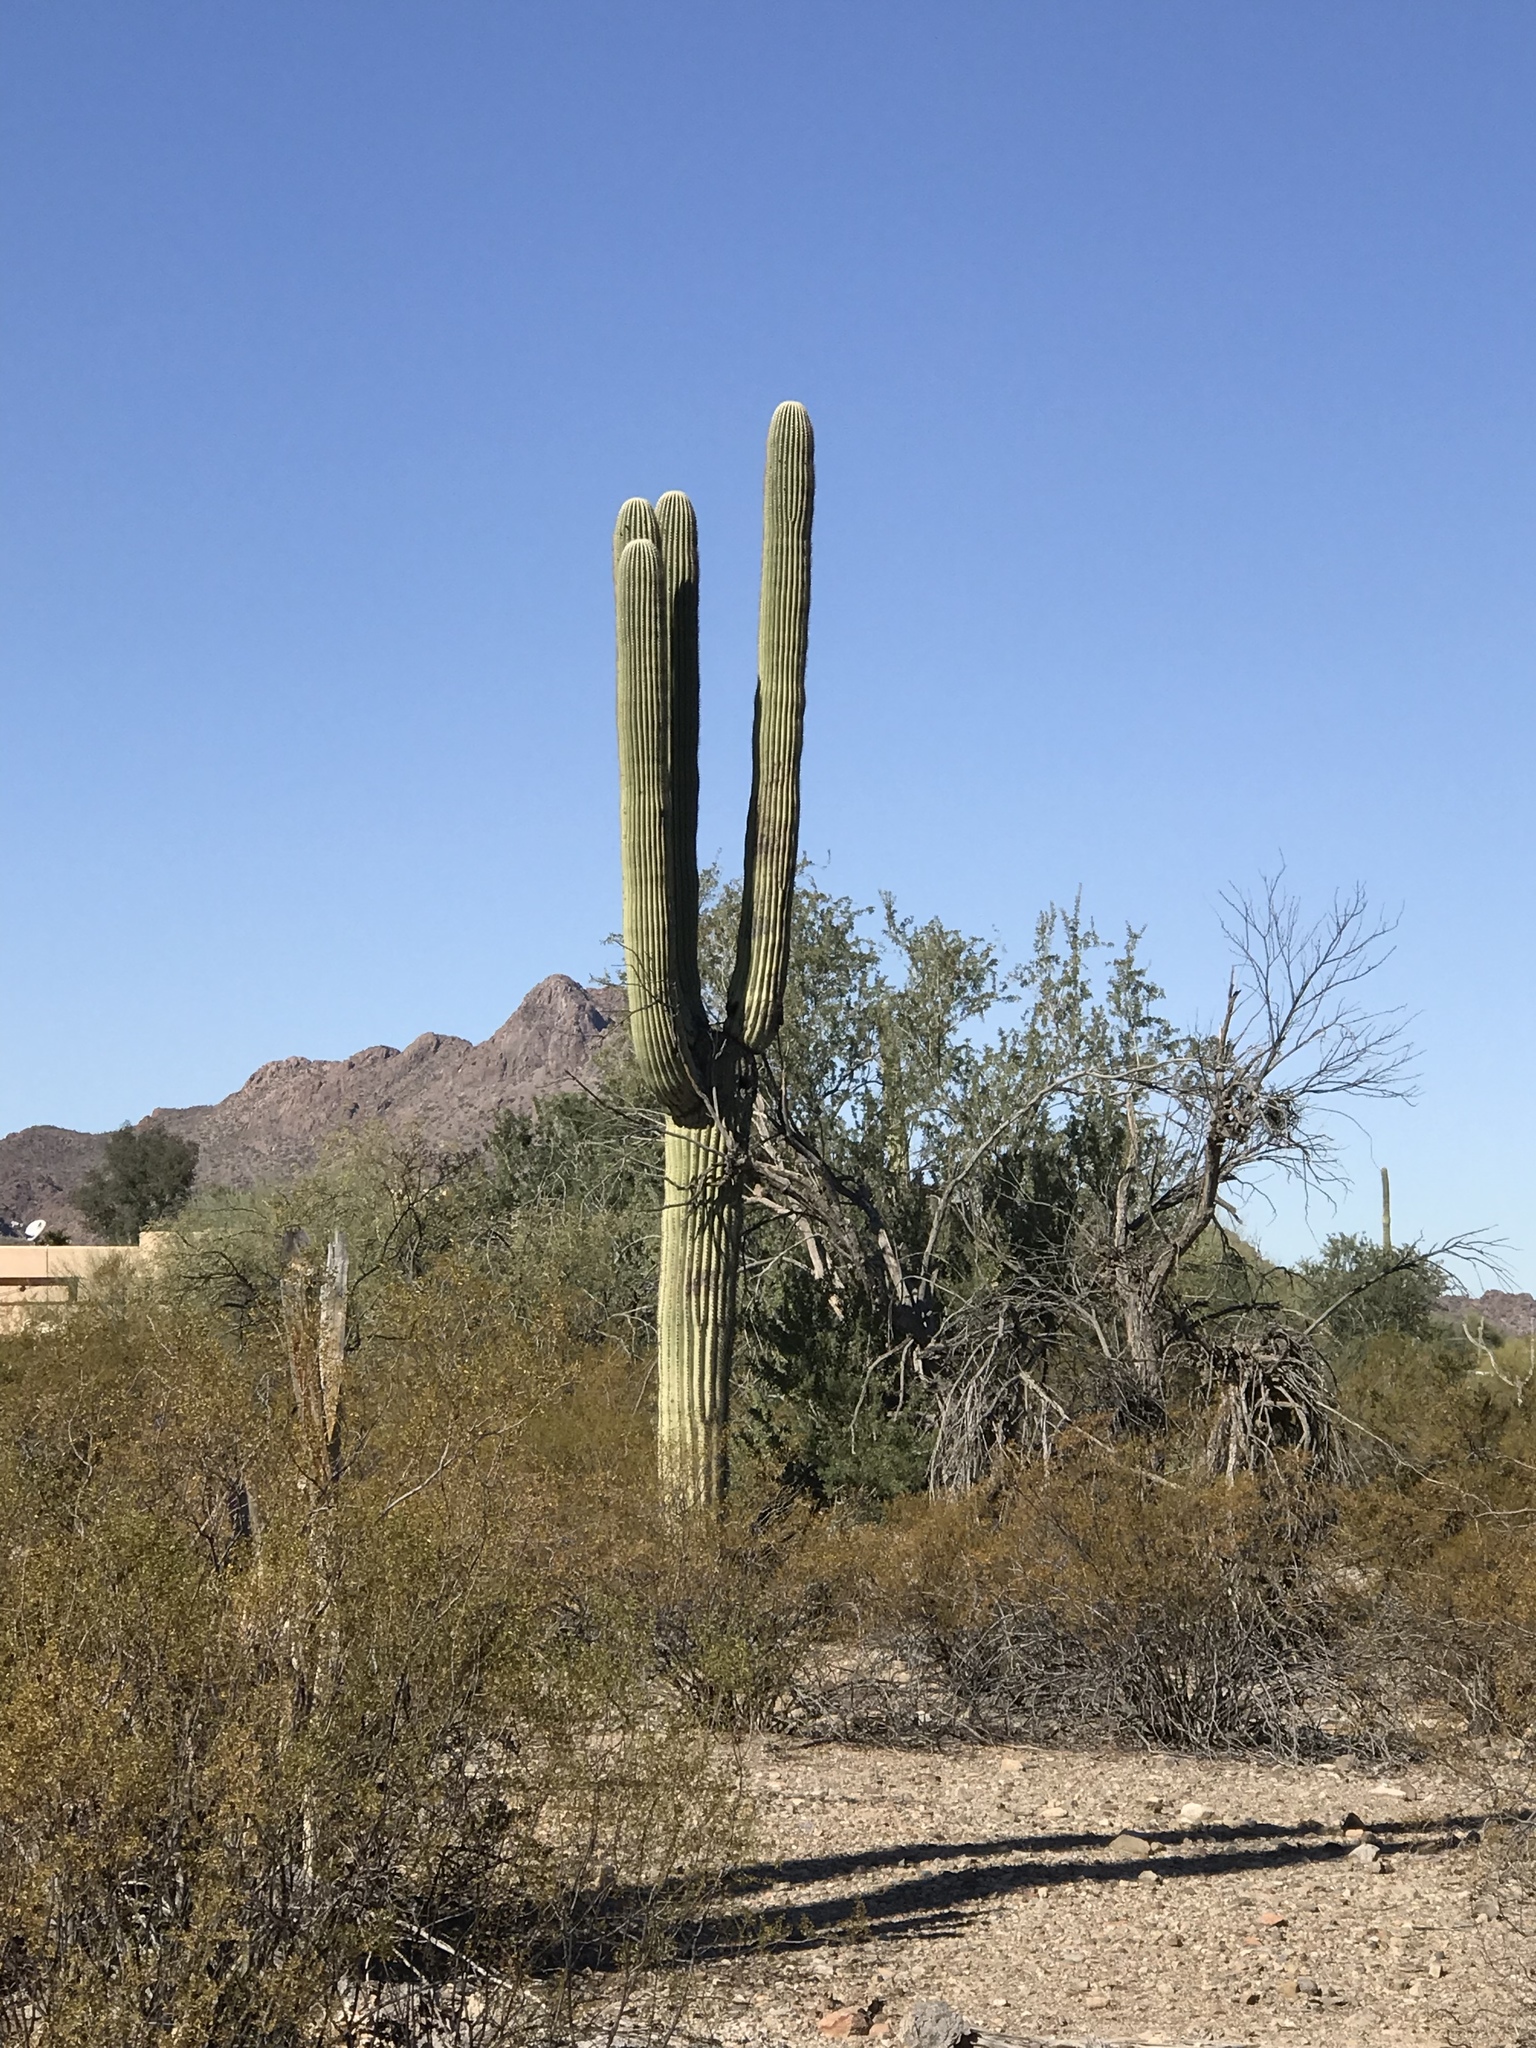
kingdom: Plantae
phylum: Tracheophyta
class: Magnoliopsida
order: Caryophyllales
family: Cactaceae
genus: Carnegiea
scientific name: Carnegiea gigantea
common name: Saguaro
